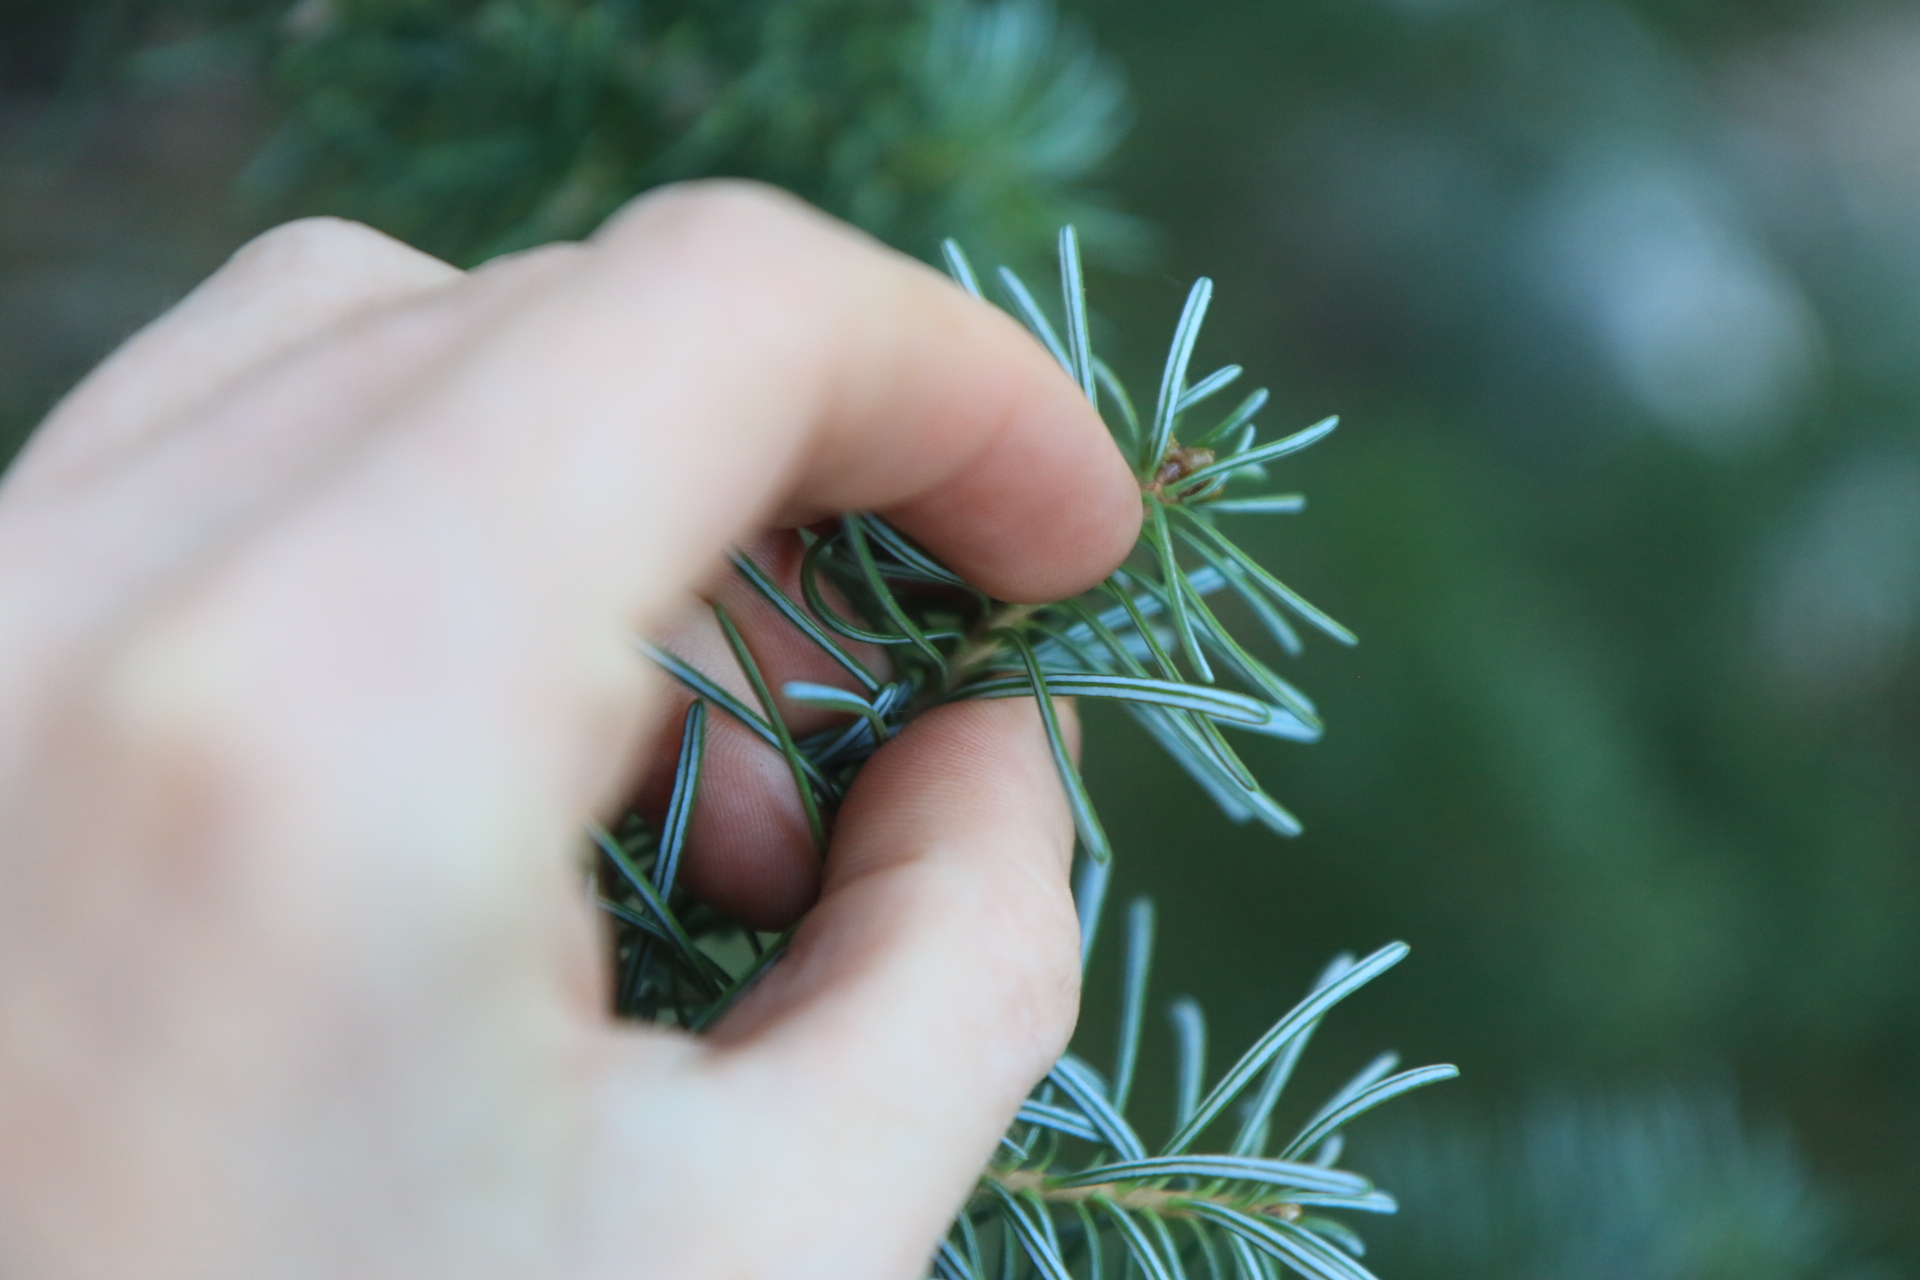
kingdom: Plantae
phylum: Tracheophyta
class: Pinopsida
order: Pinales
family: Pinaceae
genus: Abies
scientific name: Abies lasiocarpa
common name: Subalpine fir
